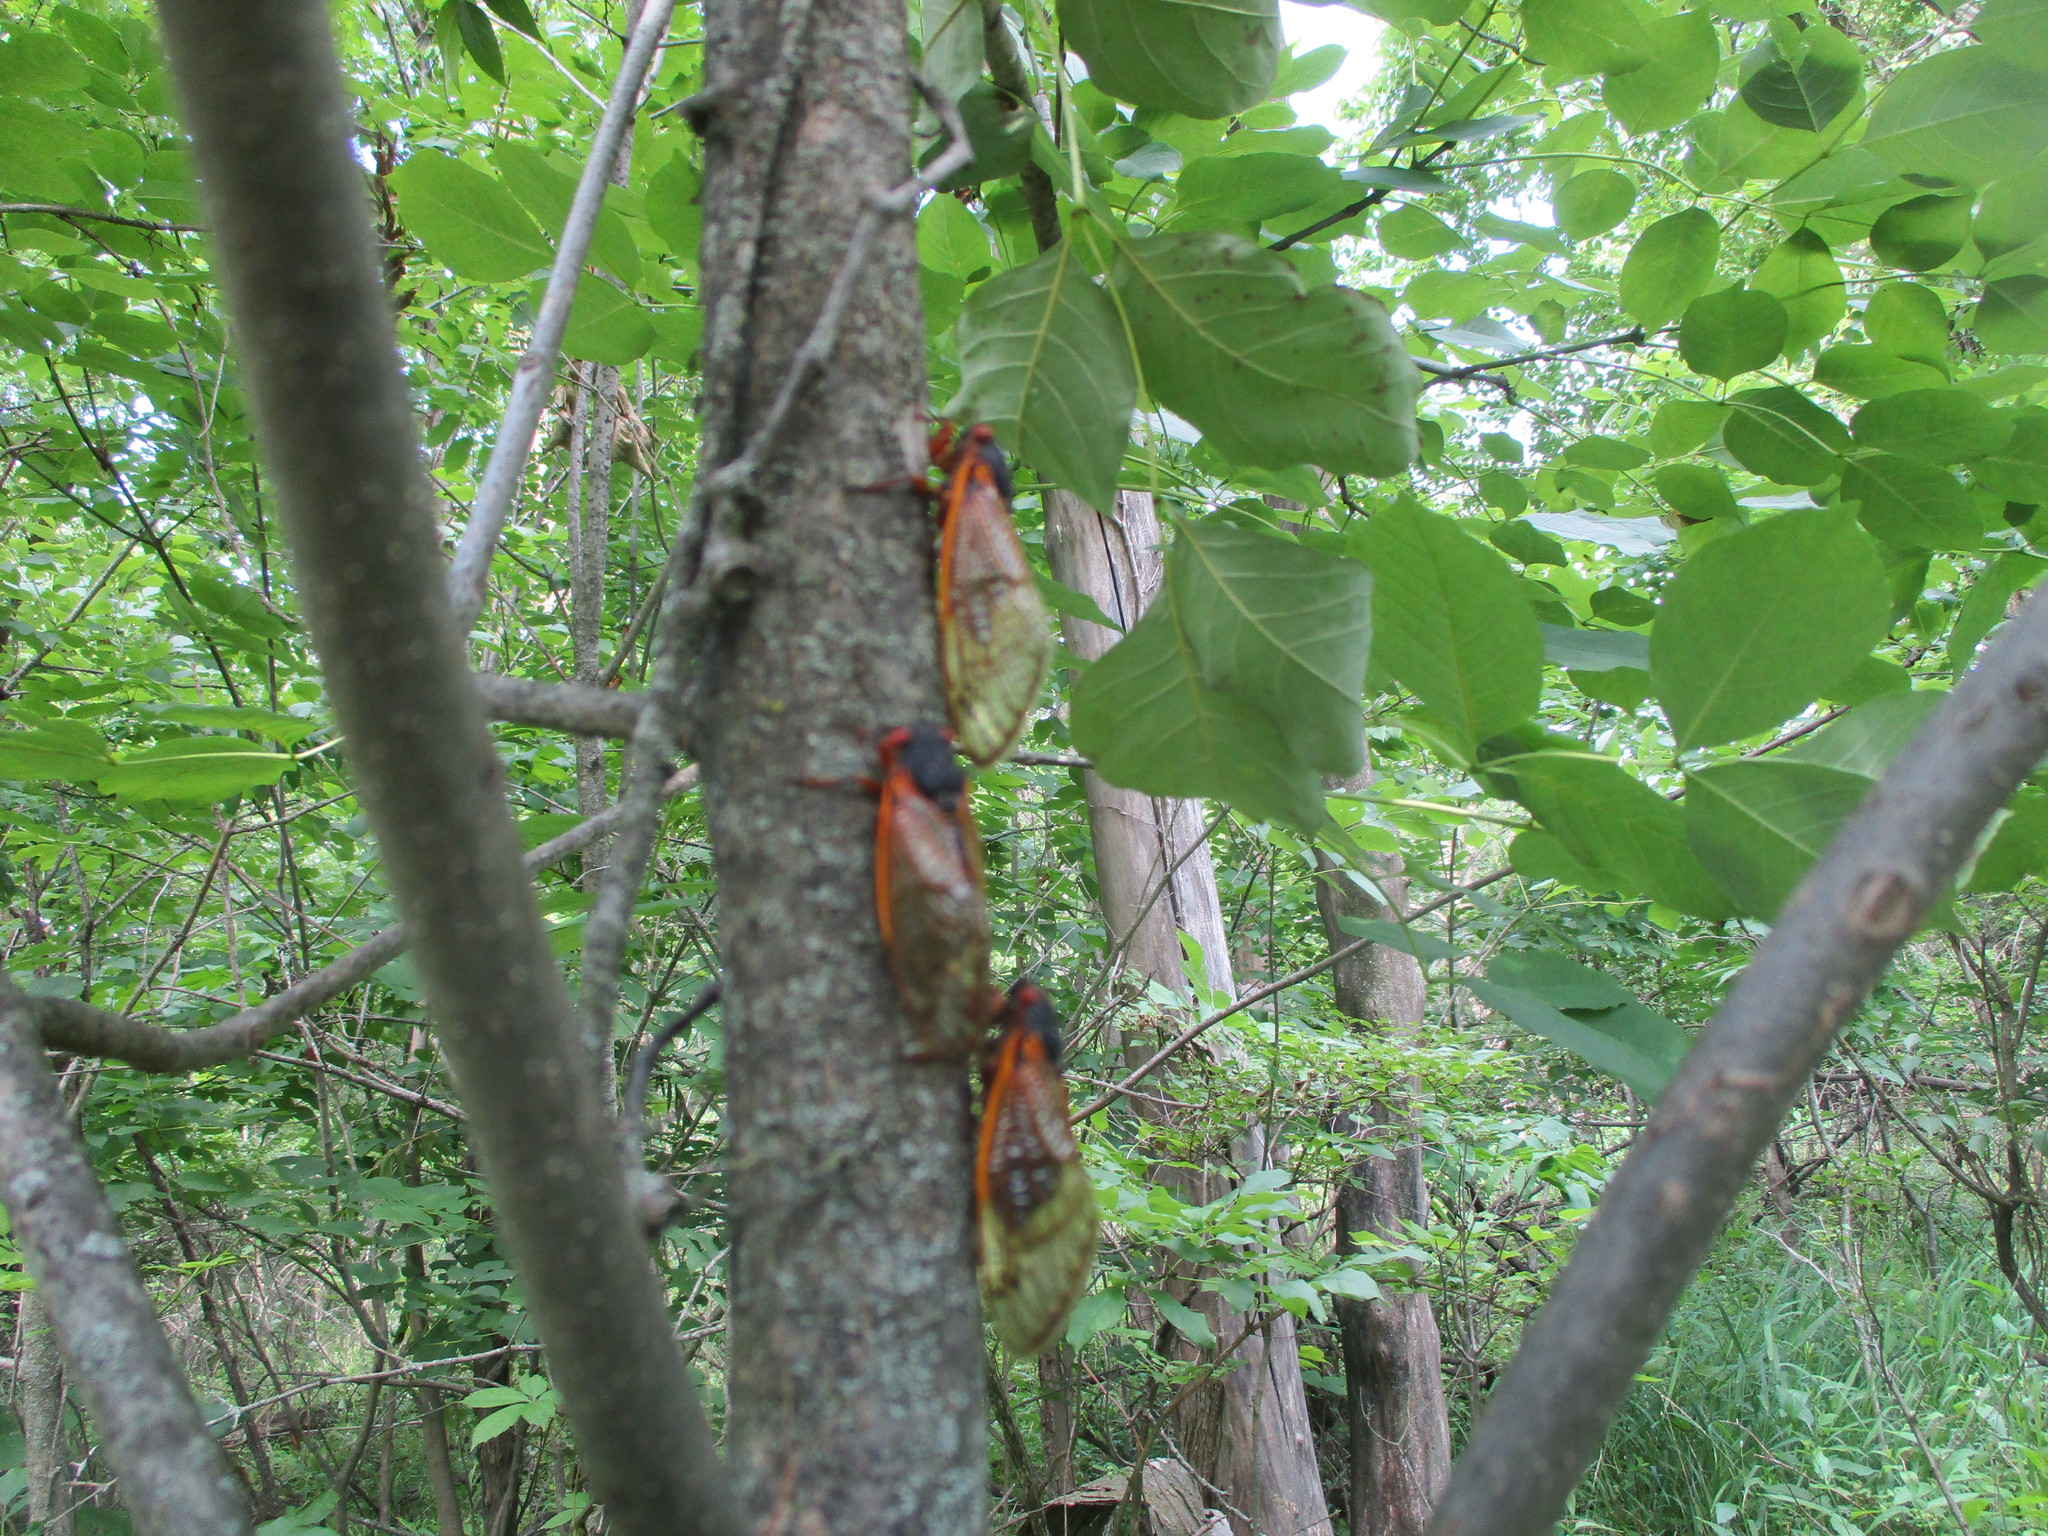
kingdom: Animalia
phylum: Arthropoda
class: Insecta
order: Hemiptera
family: Cicadidae
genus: Magicicada
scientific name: Magicicada septendecim
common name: Periodical cicada
